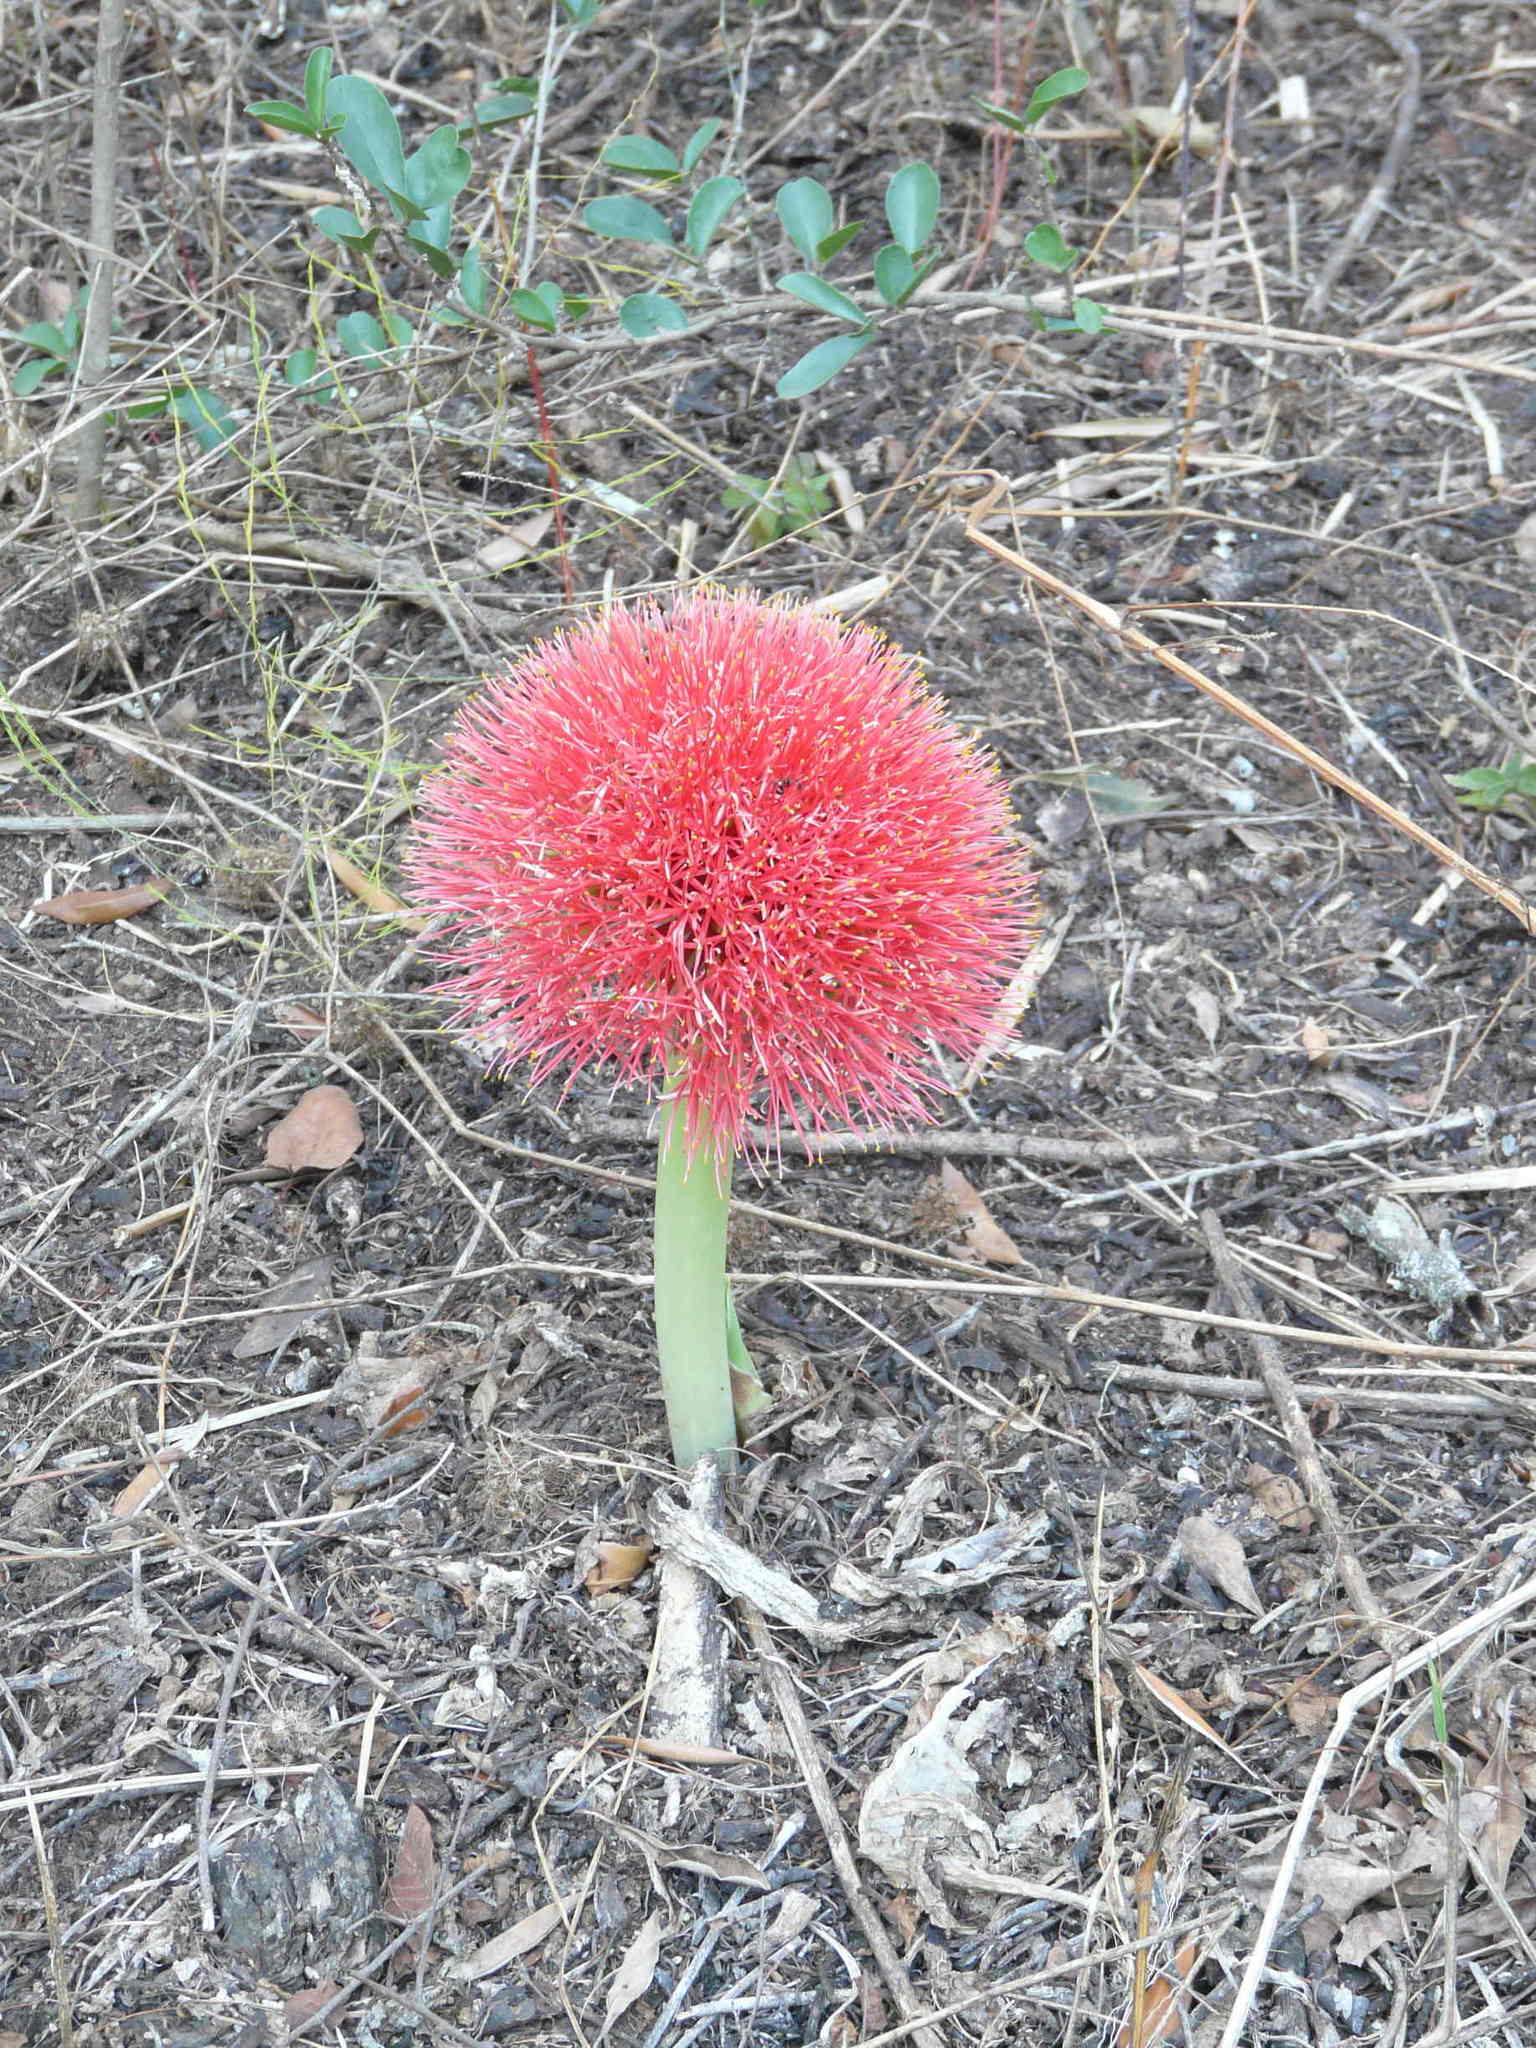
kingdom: Plantae
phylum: Tracheophyta
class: Liliopsida
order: Asparagales
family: Amaryllidaceae
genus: Scadoxus
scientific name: Scadoxus multiflorus
